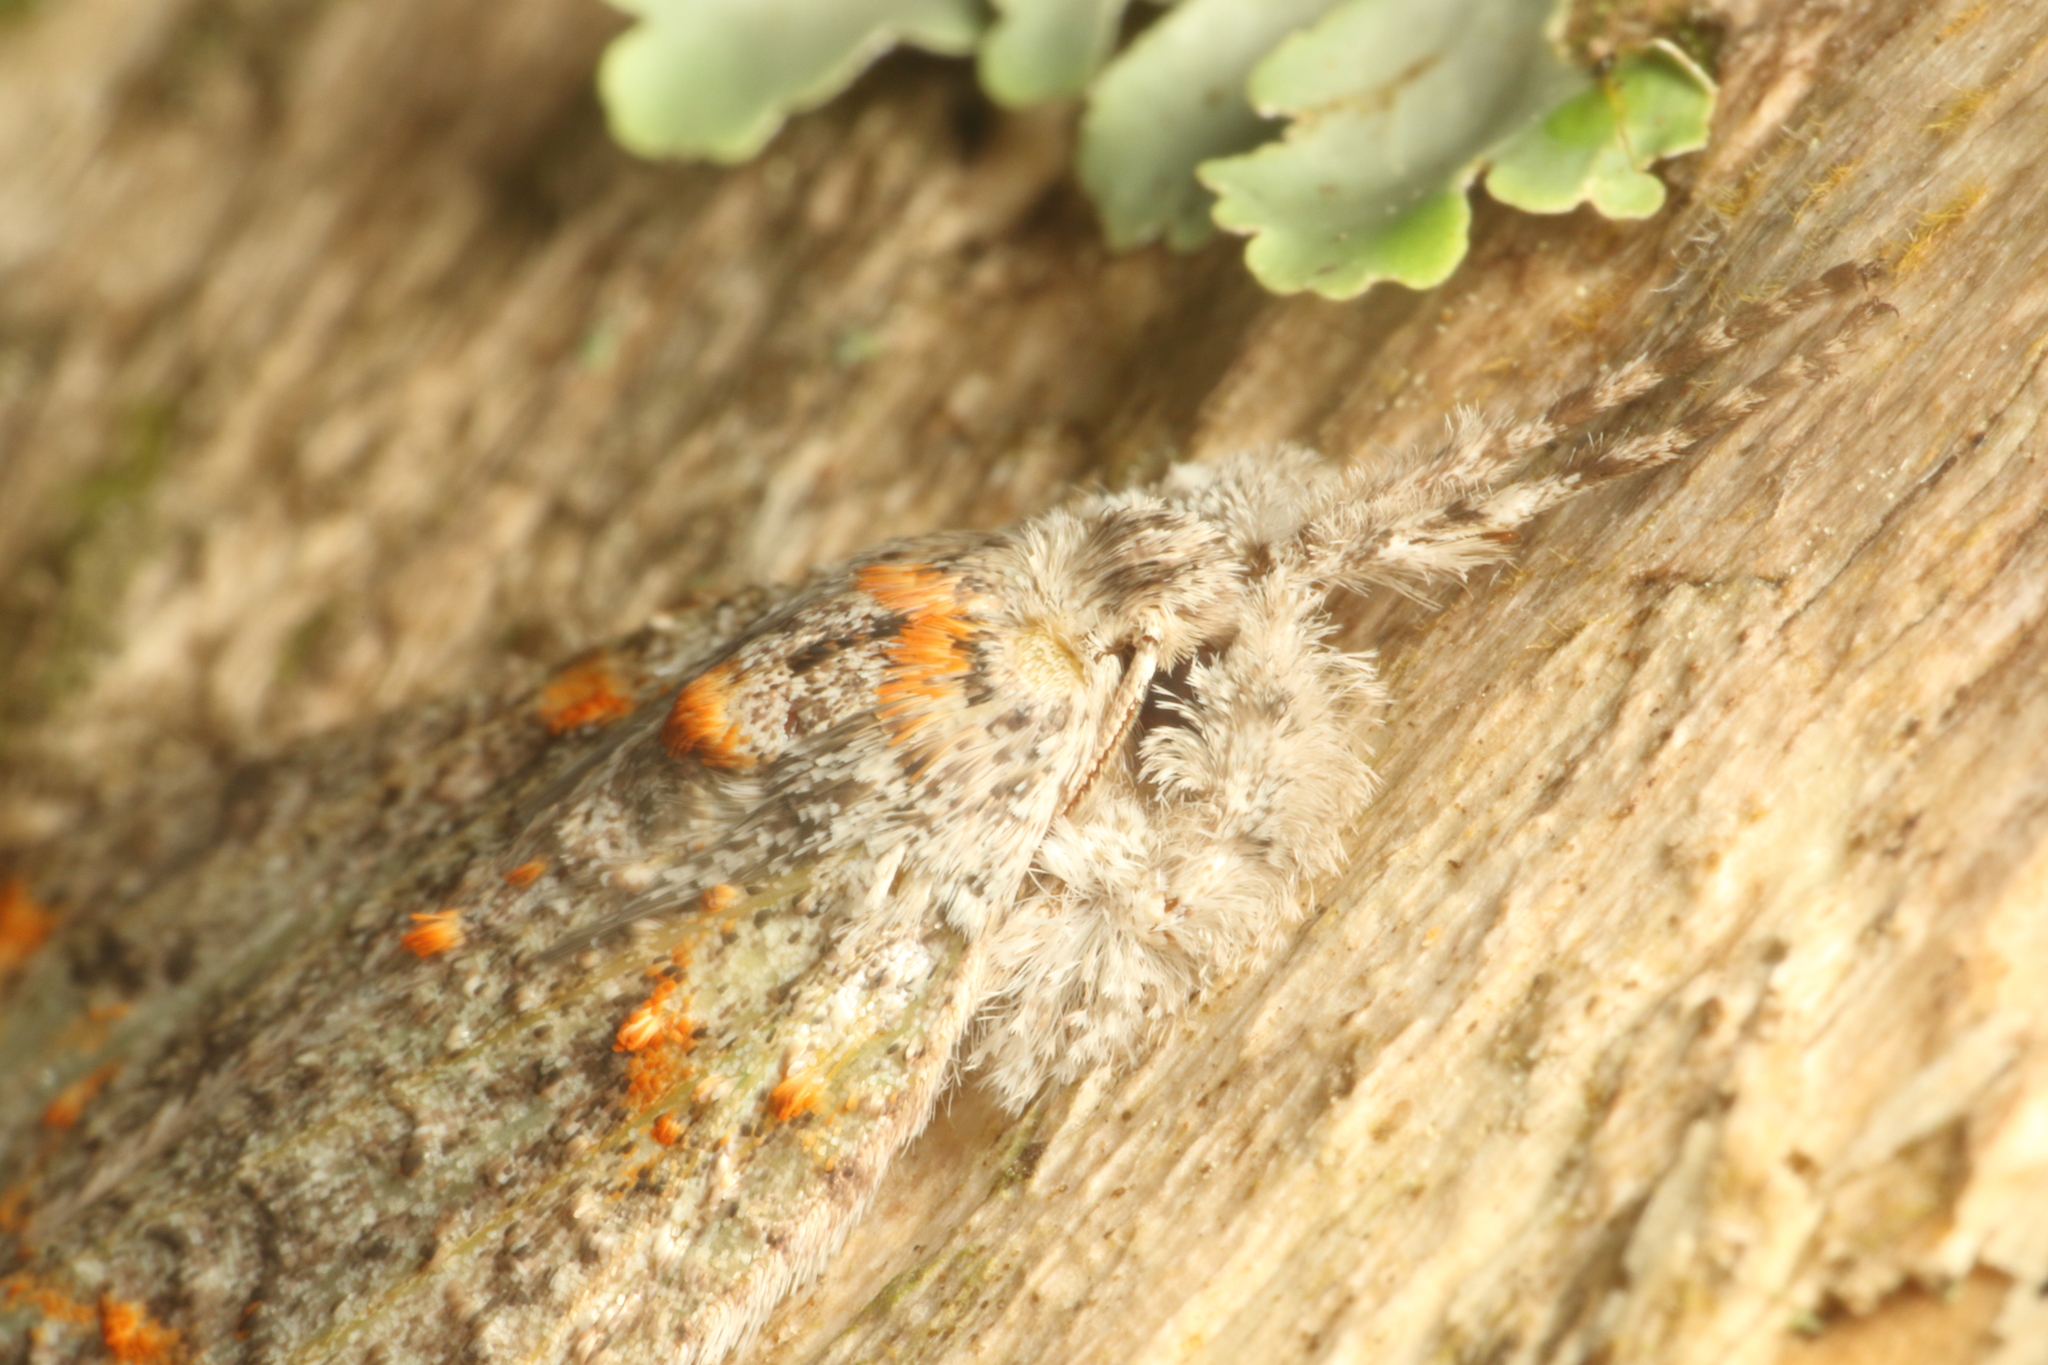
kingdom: Animalia
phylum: Arthropoda
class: Insecta
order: Lepidoptera
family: Geometridae
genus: Declana
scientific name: Declana floccosa
